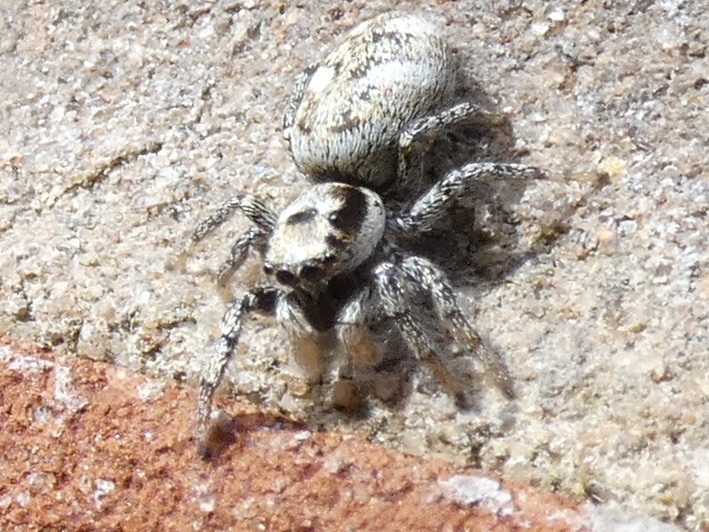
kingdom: Animalia
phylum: Arthropoda
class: Arachnida
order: Araneae
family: Salticidae
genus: Salticus
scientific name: Salticus scenicus
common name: Zebra jumper
